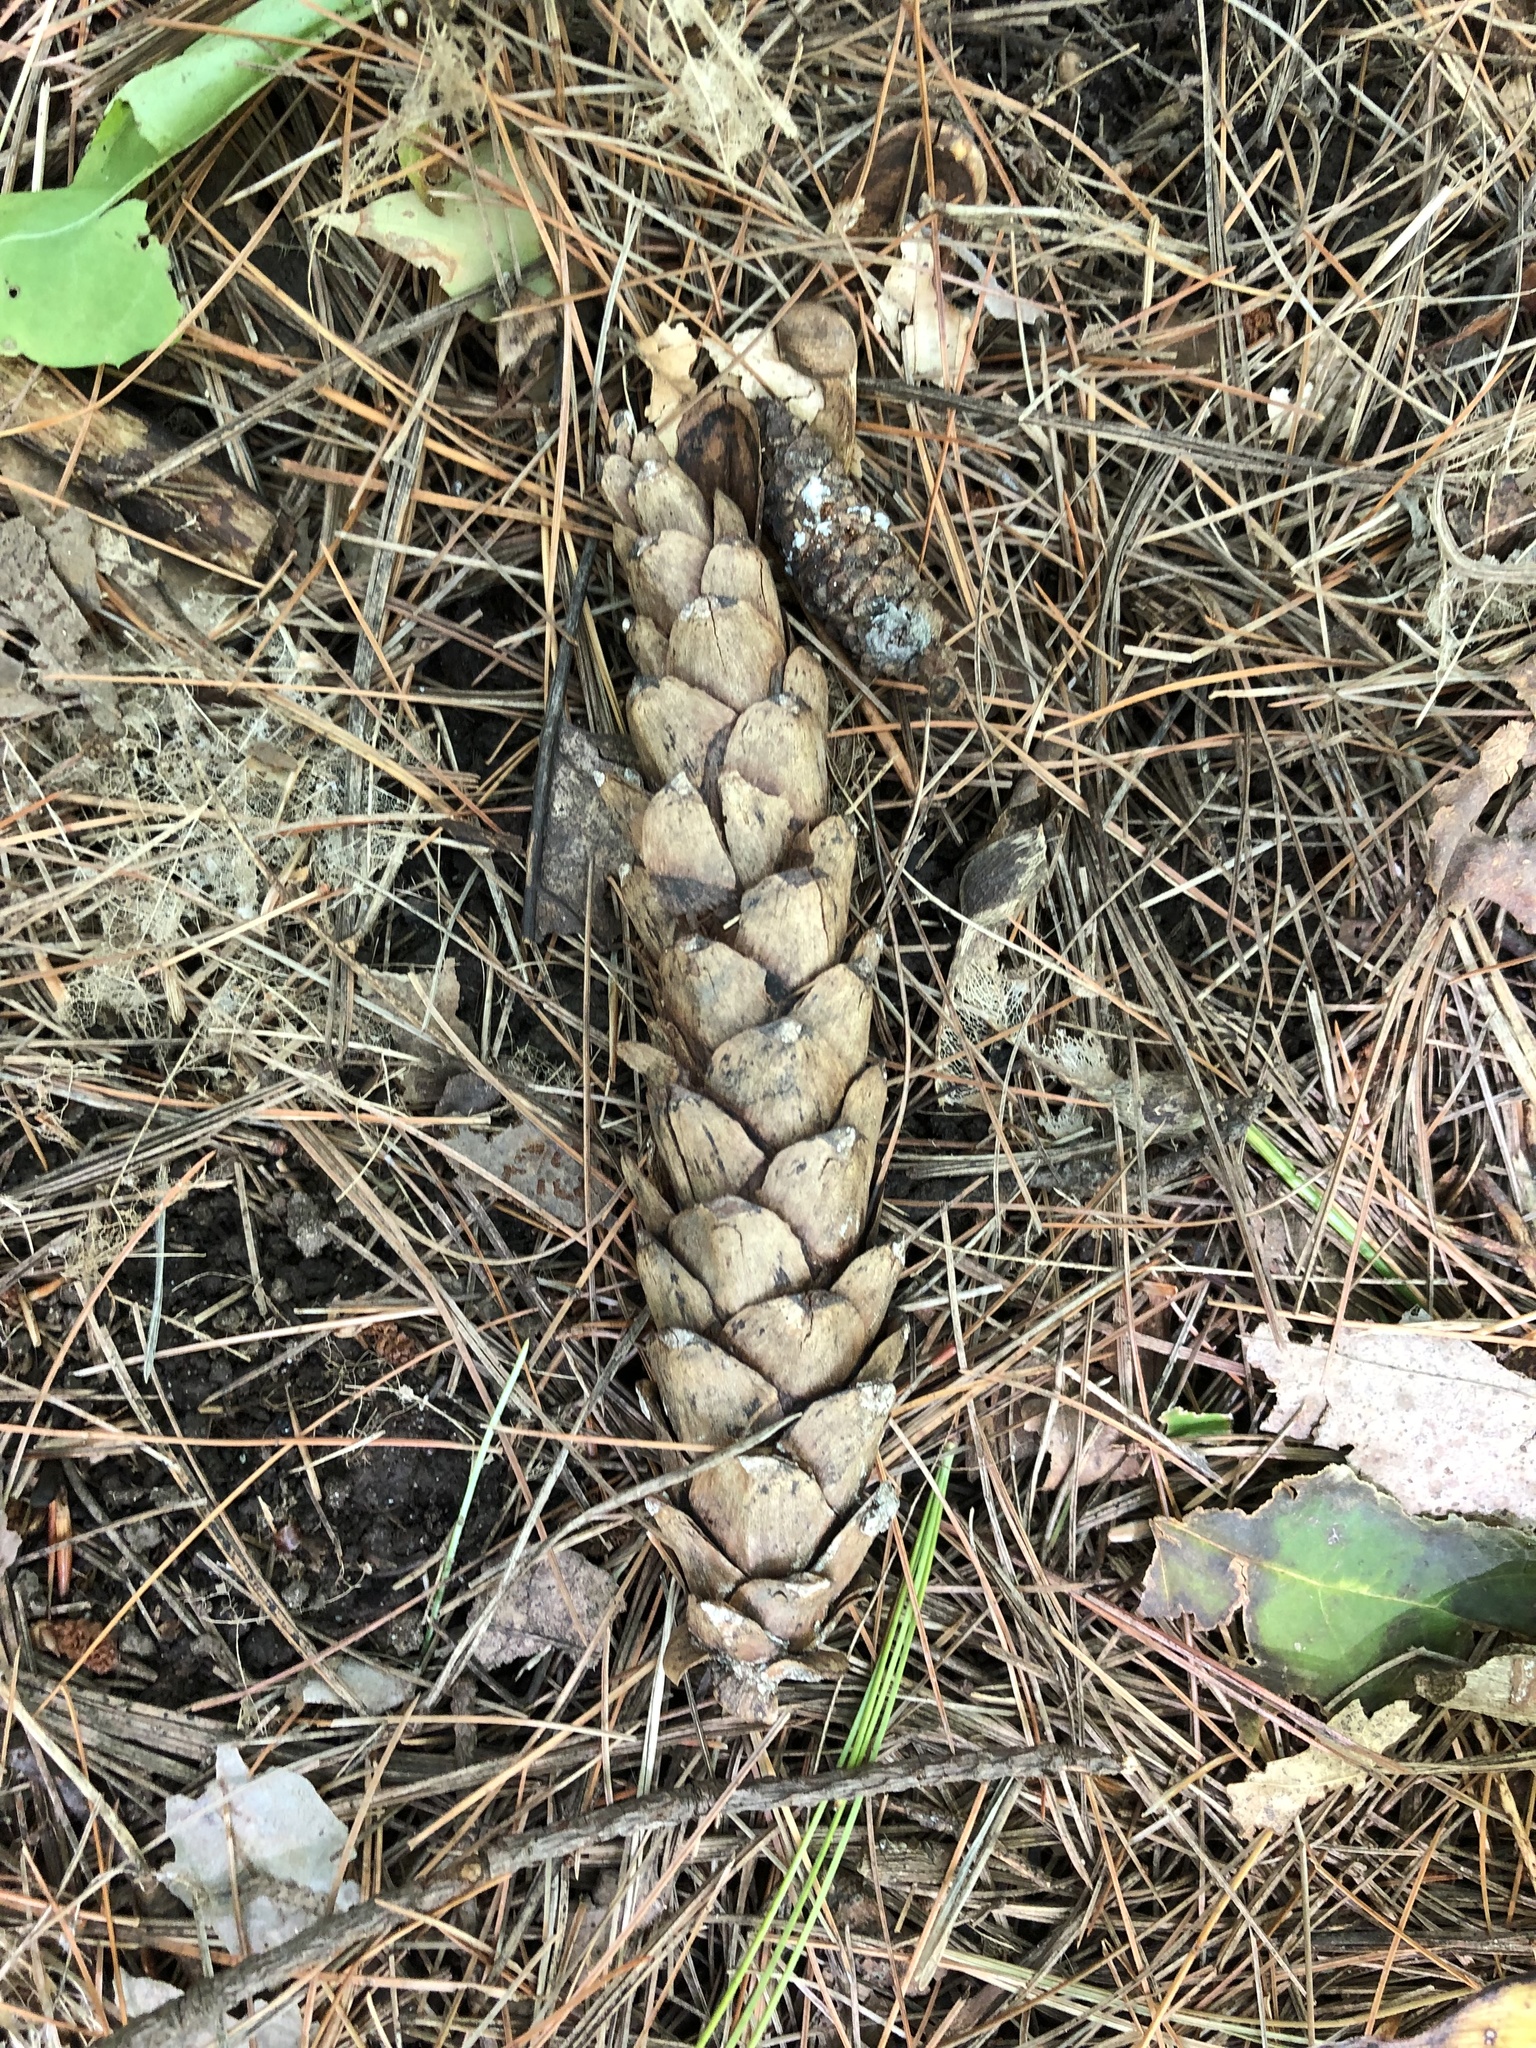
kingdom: Plantae
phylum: Tracheophyta
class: Pinopsida
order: Pinales
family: Pinaceae
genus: Pinus
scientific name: Pinus strobus
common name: Weymouth pine
